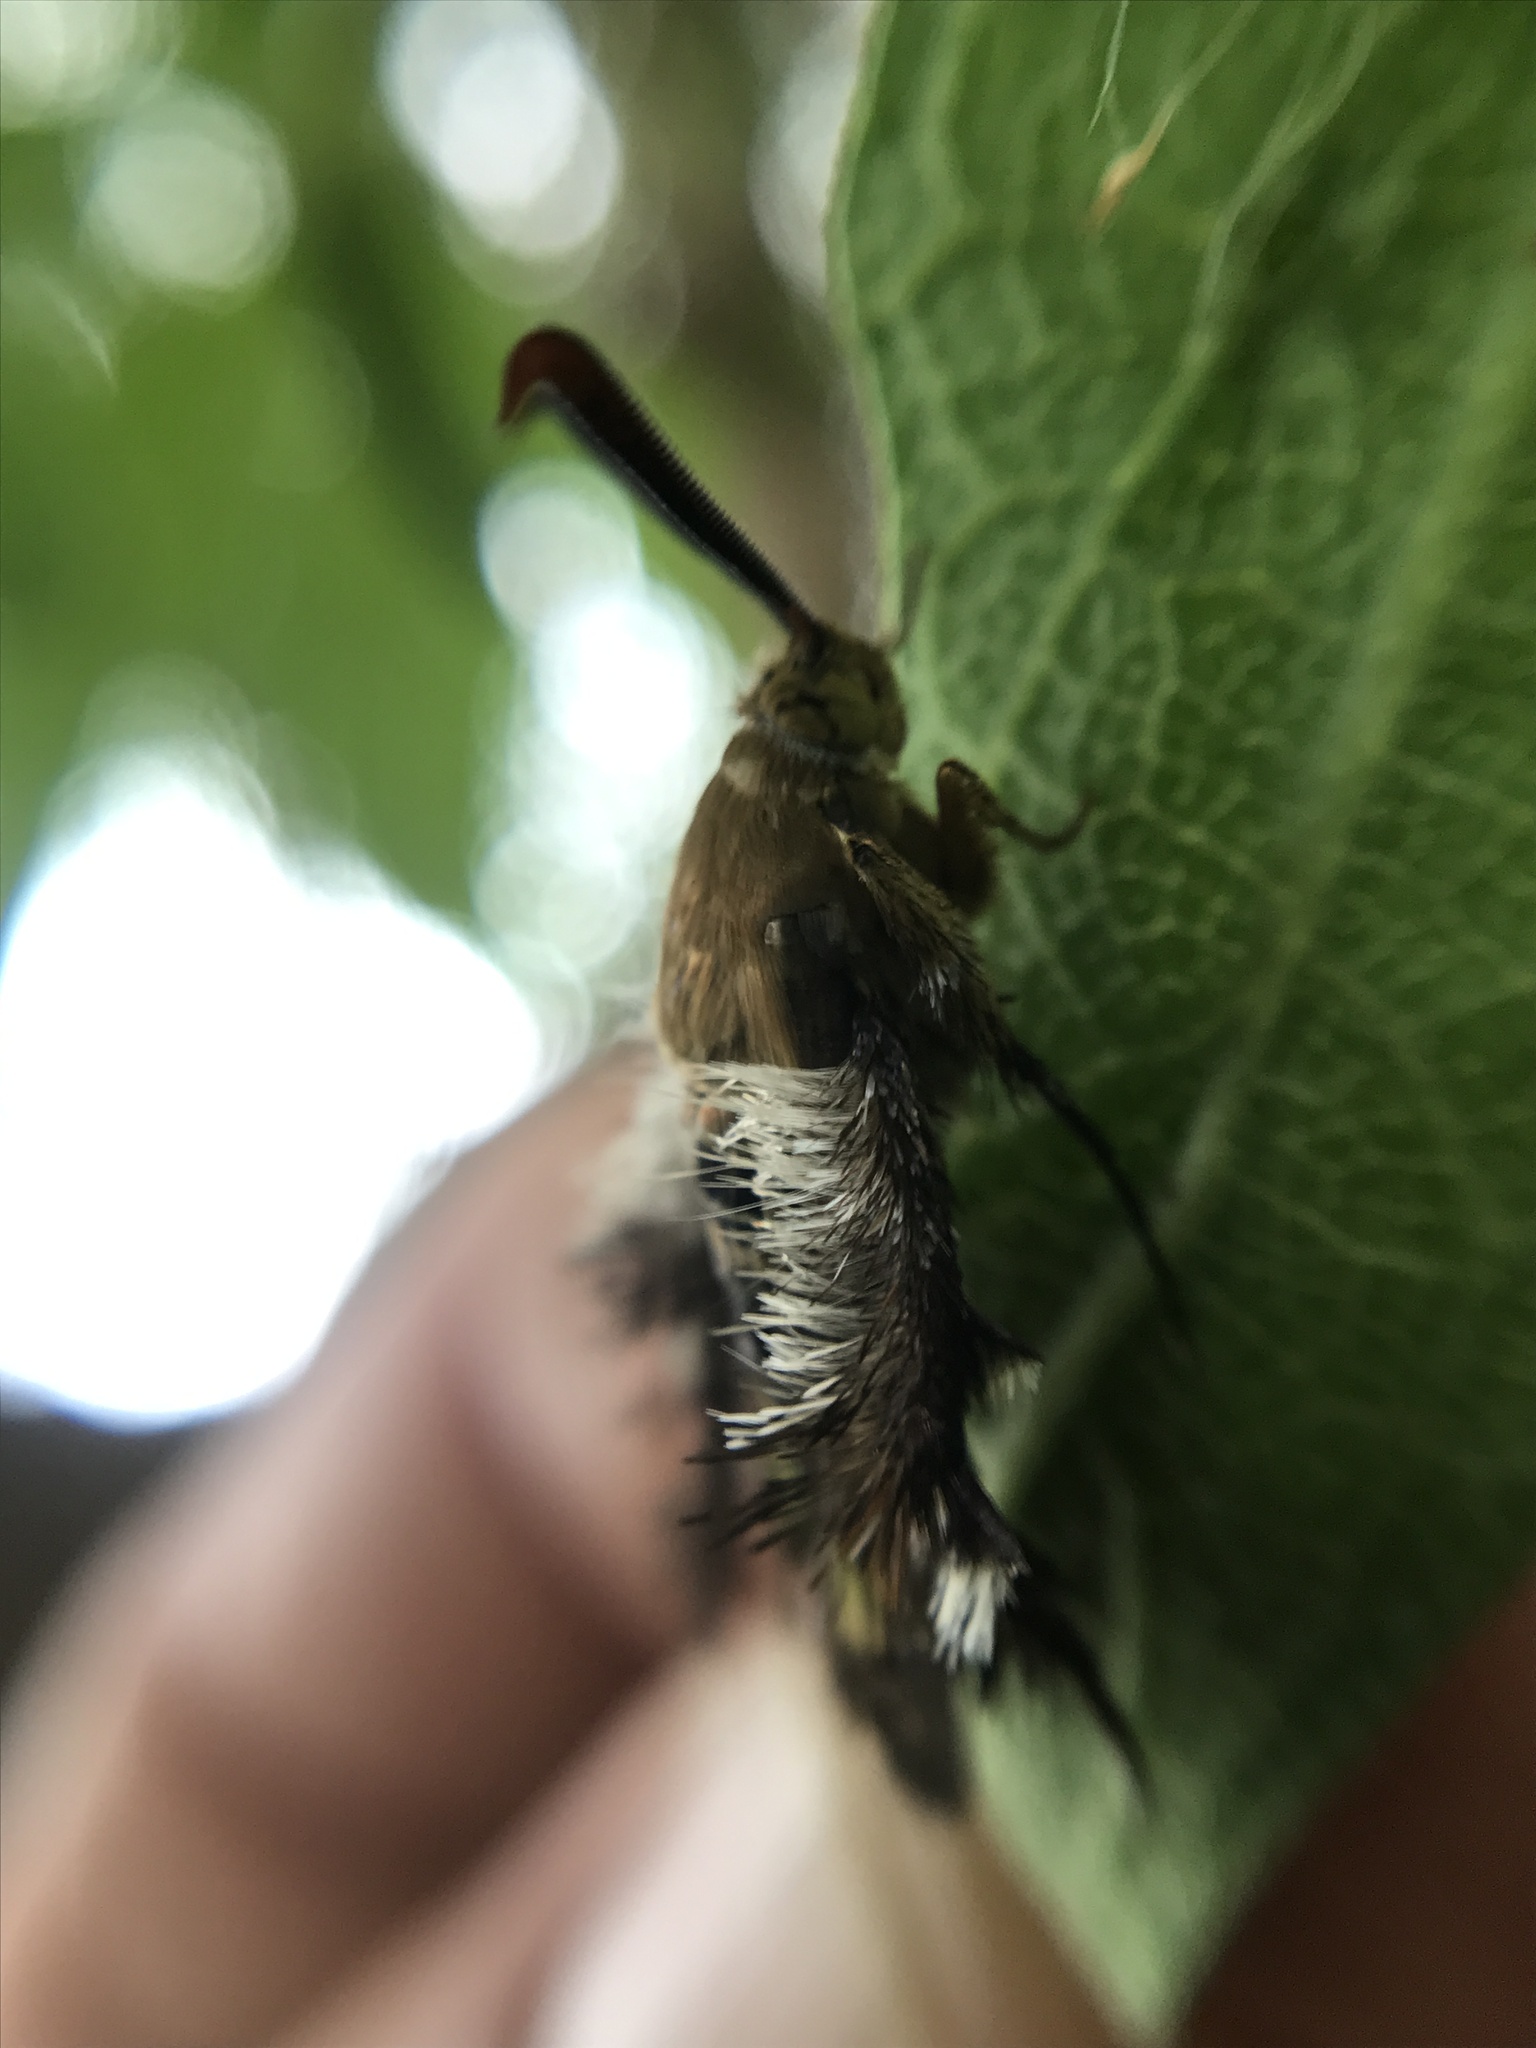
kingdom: Animalia
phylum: Arthropoda
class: Insecta
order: Lepidoptera
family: Sesiidae
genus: Melittia
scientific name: Melittia powelli
